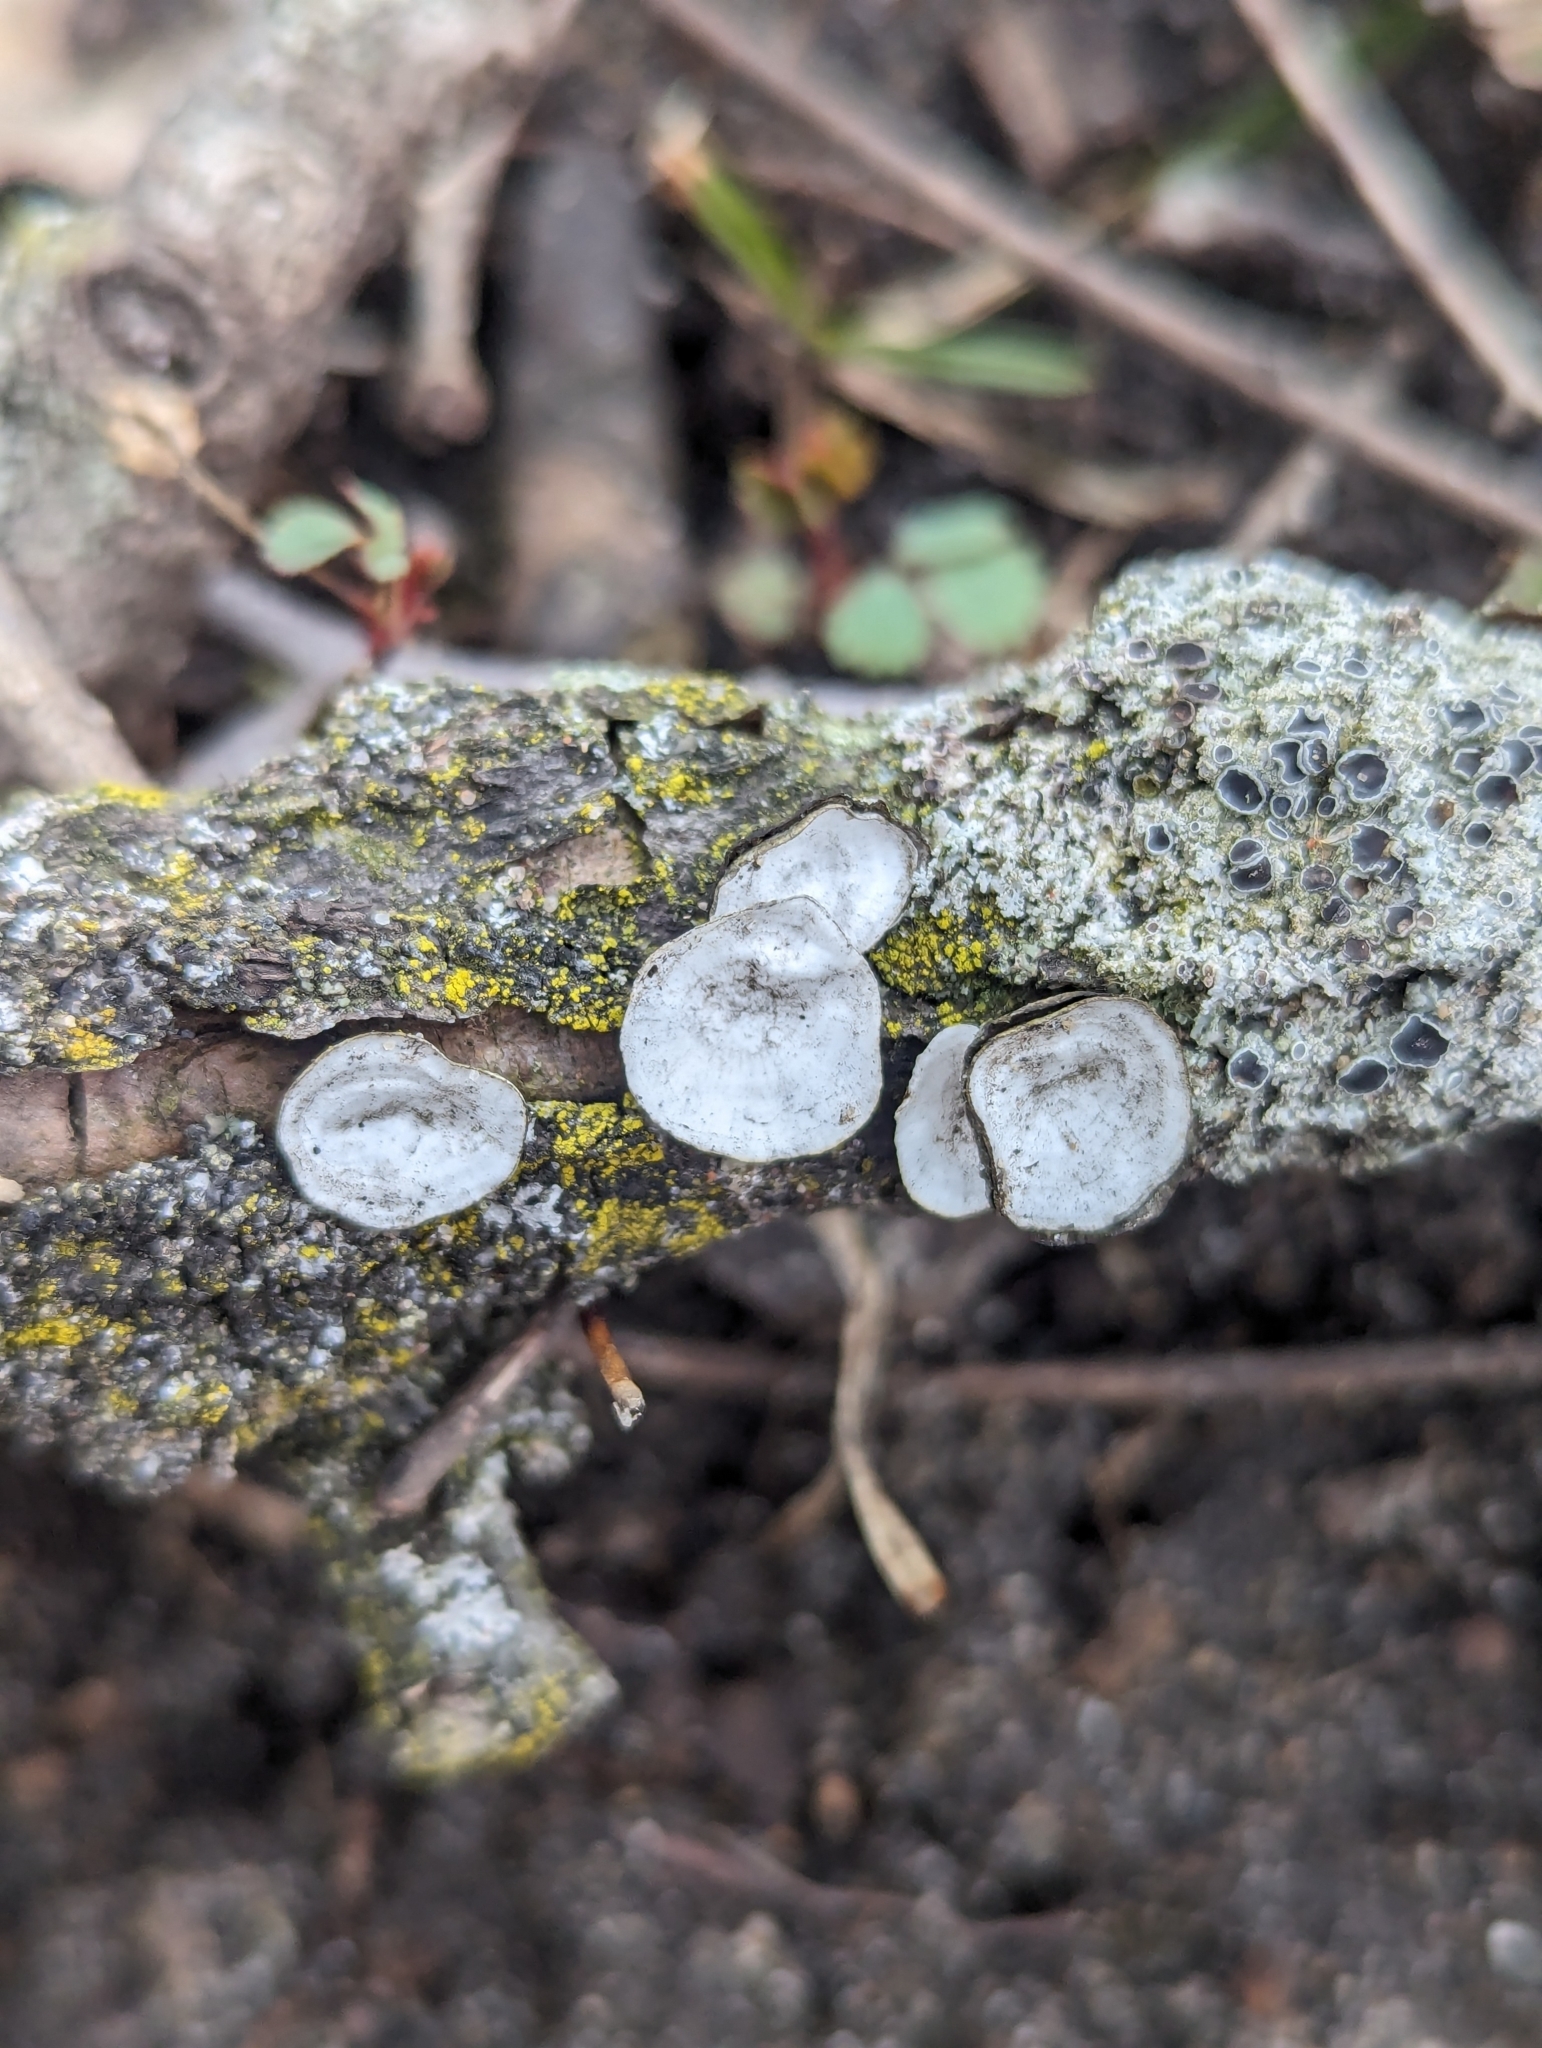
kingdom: Fungi
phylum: Basidiomycota
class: Agaricomycetes
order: Polyporales
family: Polyporaceae
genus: Poronidulus
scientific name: Poronidulus conchifer
